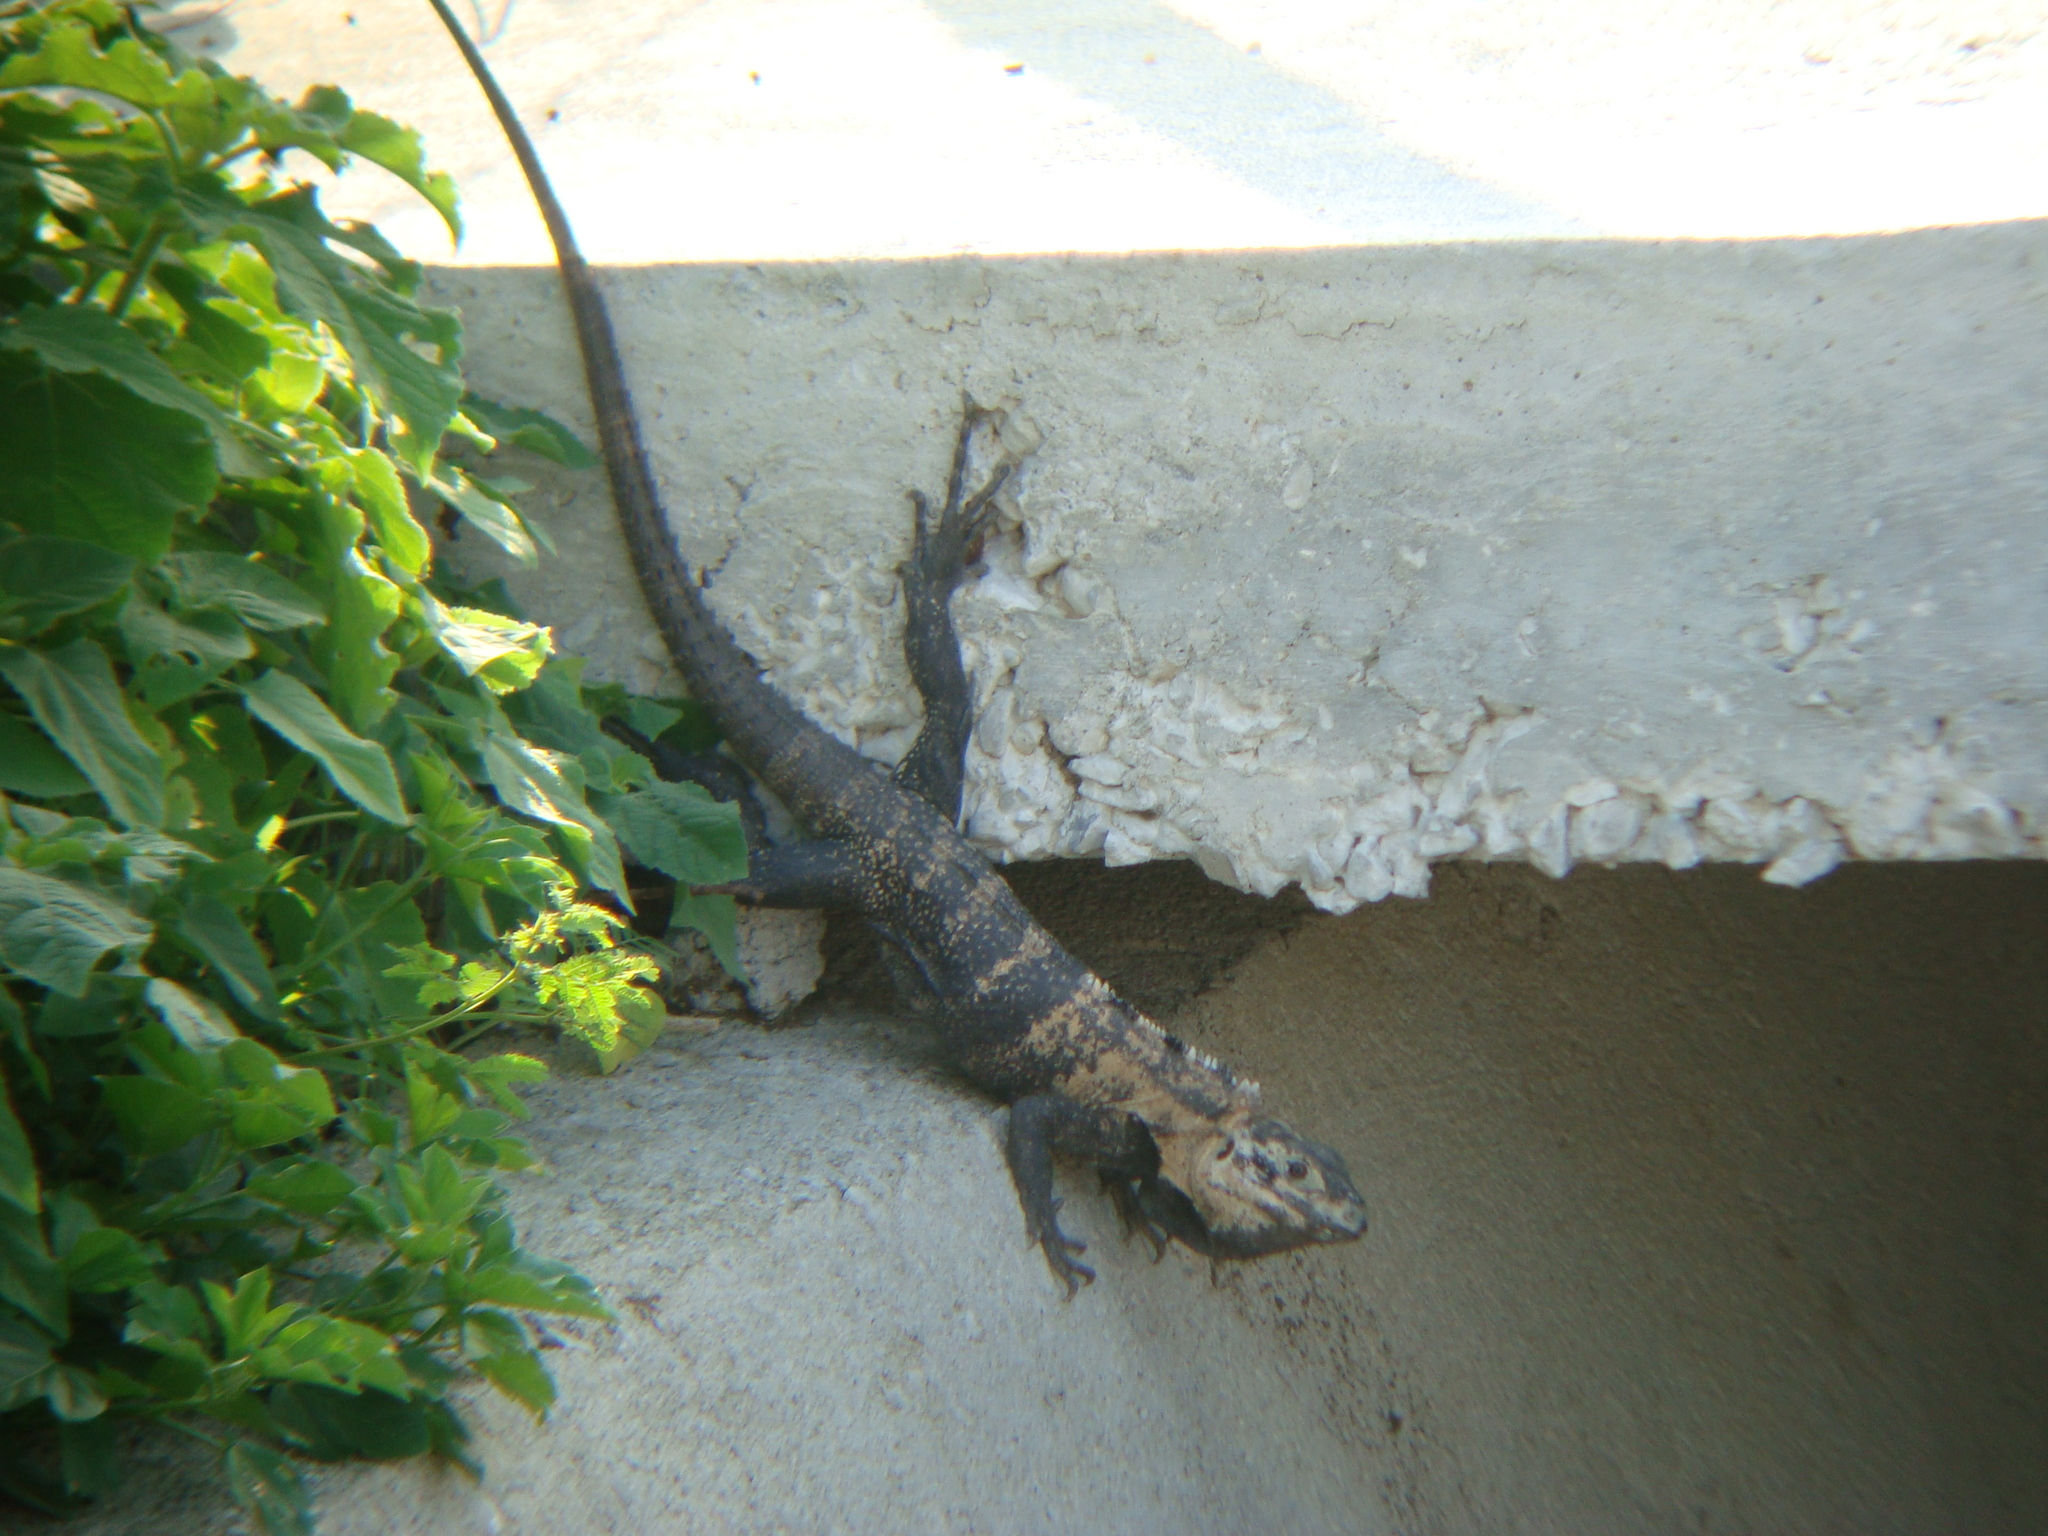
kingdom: Animalia
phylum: Chordata
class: Squamata
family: Iguanidae
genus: Ctenosaura
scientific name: Ctenosaura pectinata
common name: Guerreran spiny-tailed iguana
